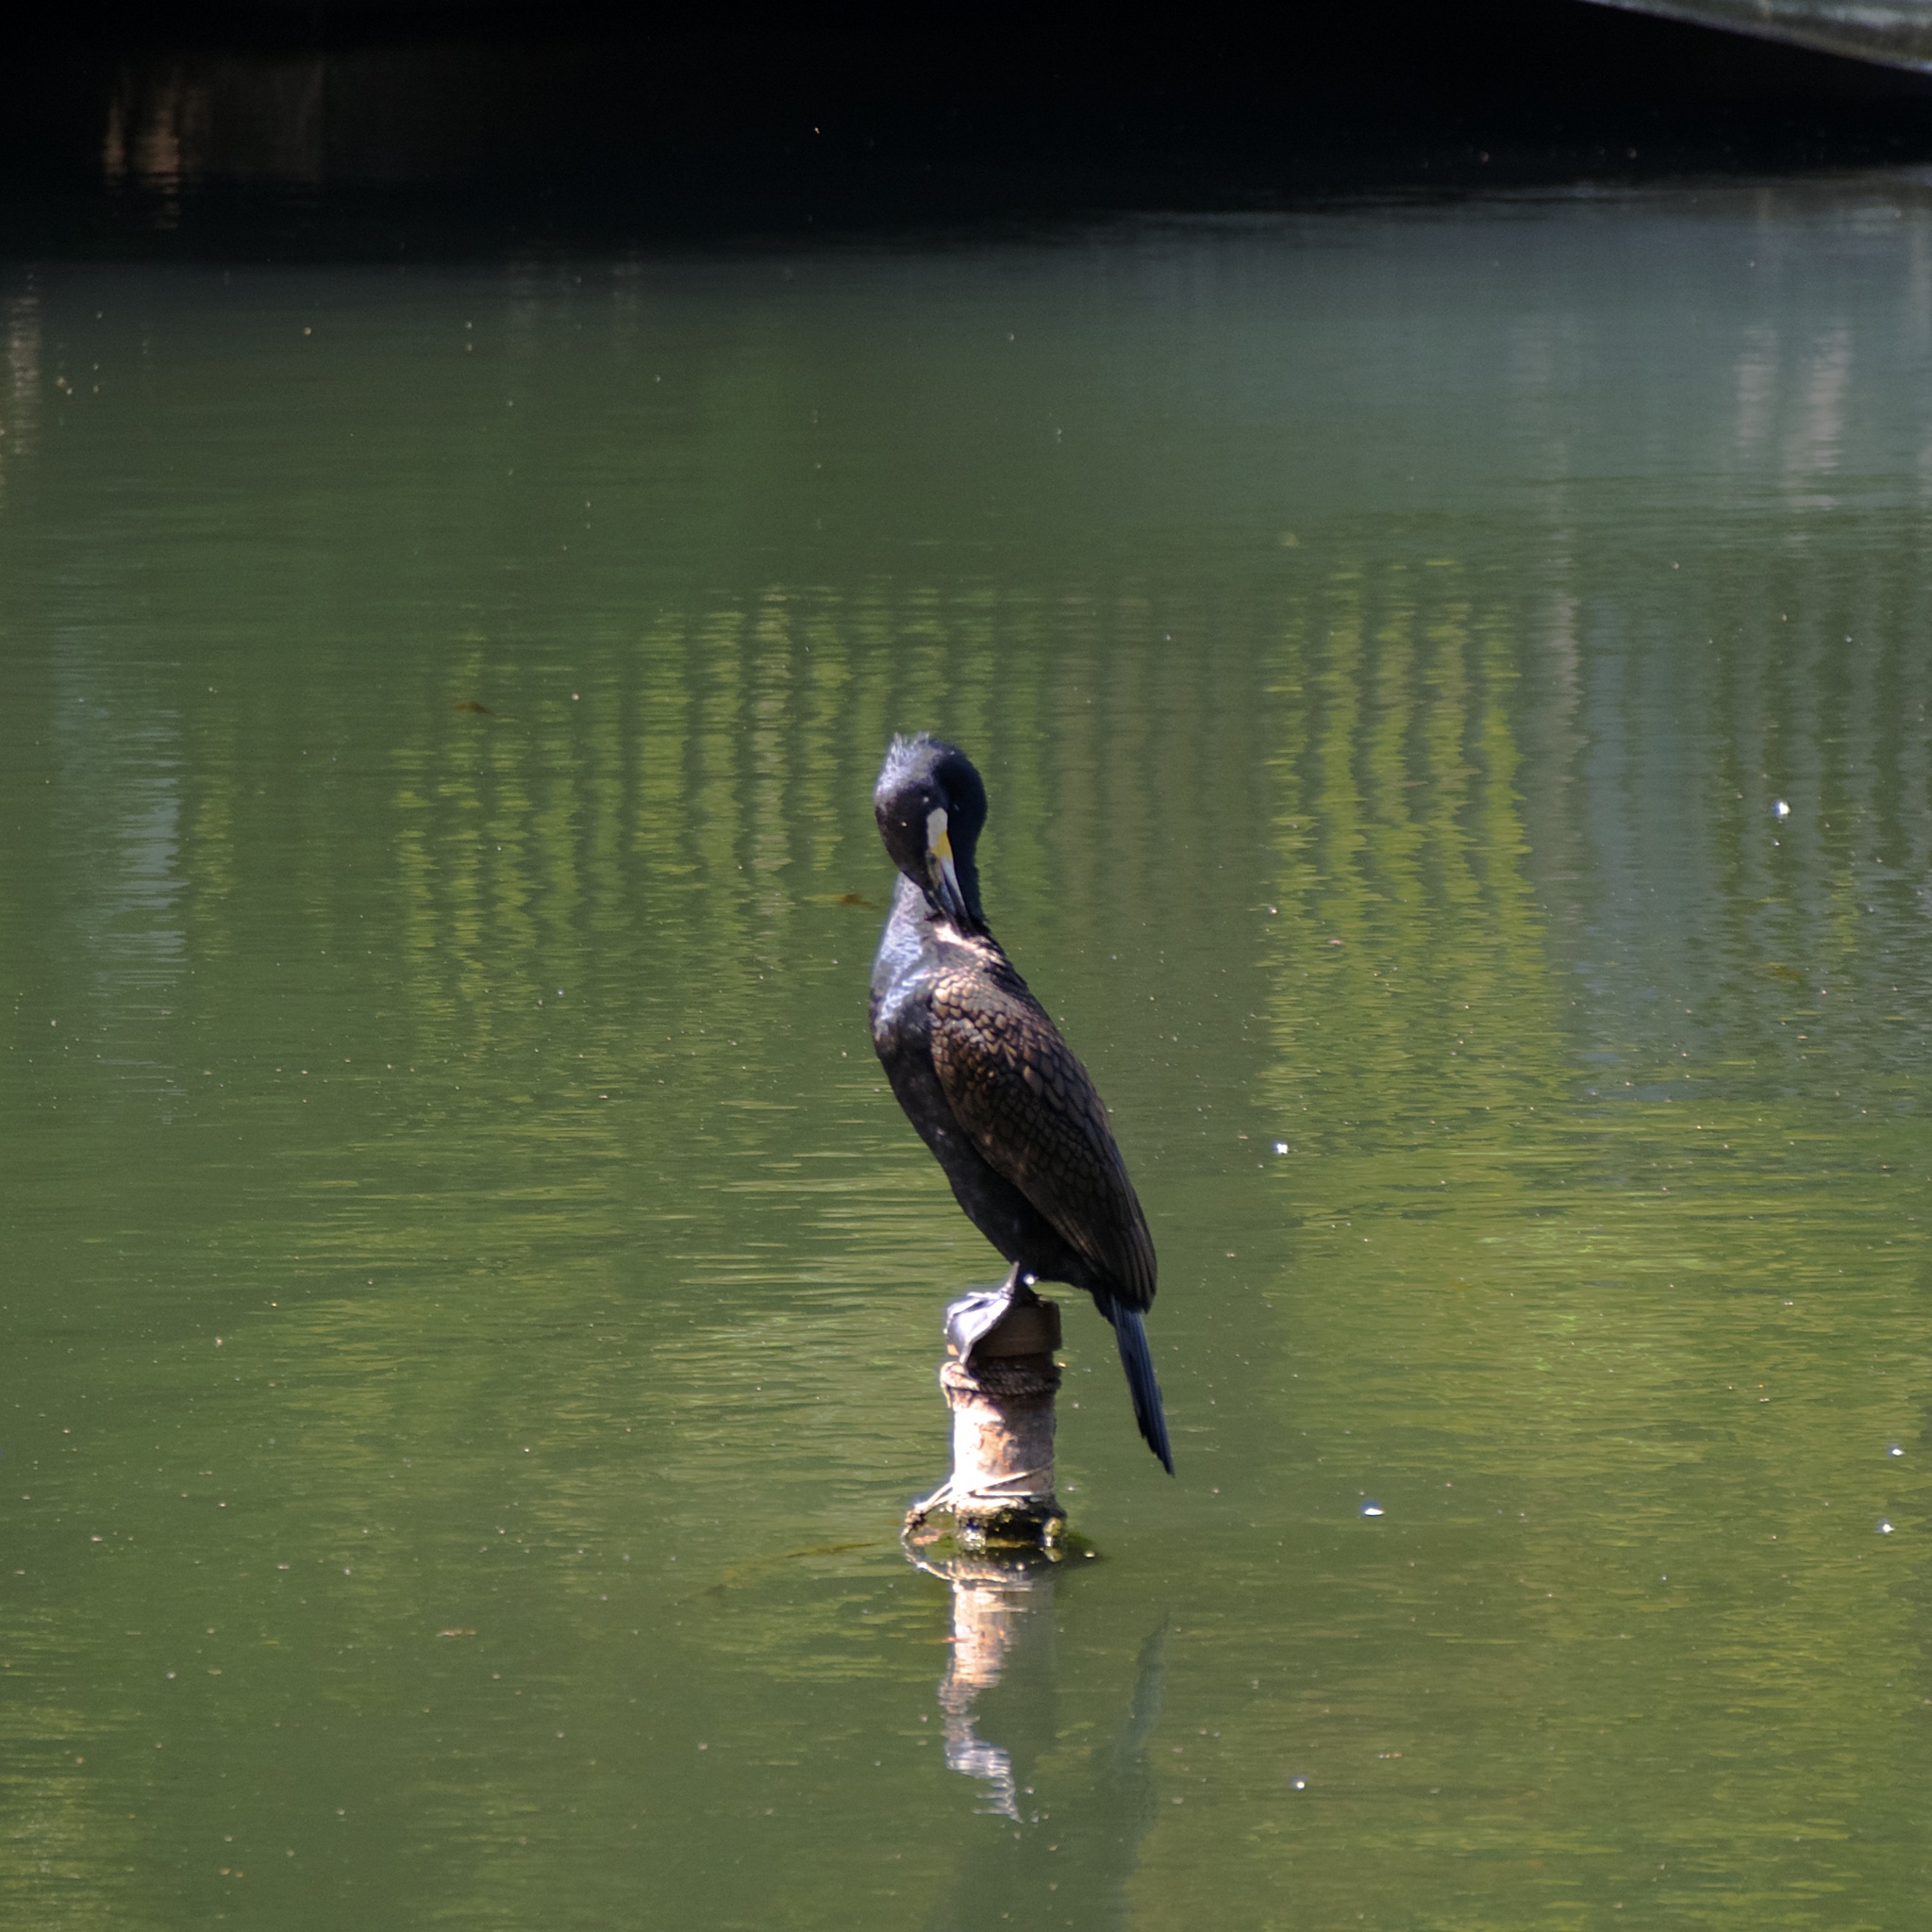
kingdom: Animalia
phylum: Chordata
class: Aves
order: Suliformes
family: Phalacrocoracidae
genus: Phalacrocorax
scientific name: Phalacrocorax carbo
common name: Great cormorant
